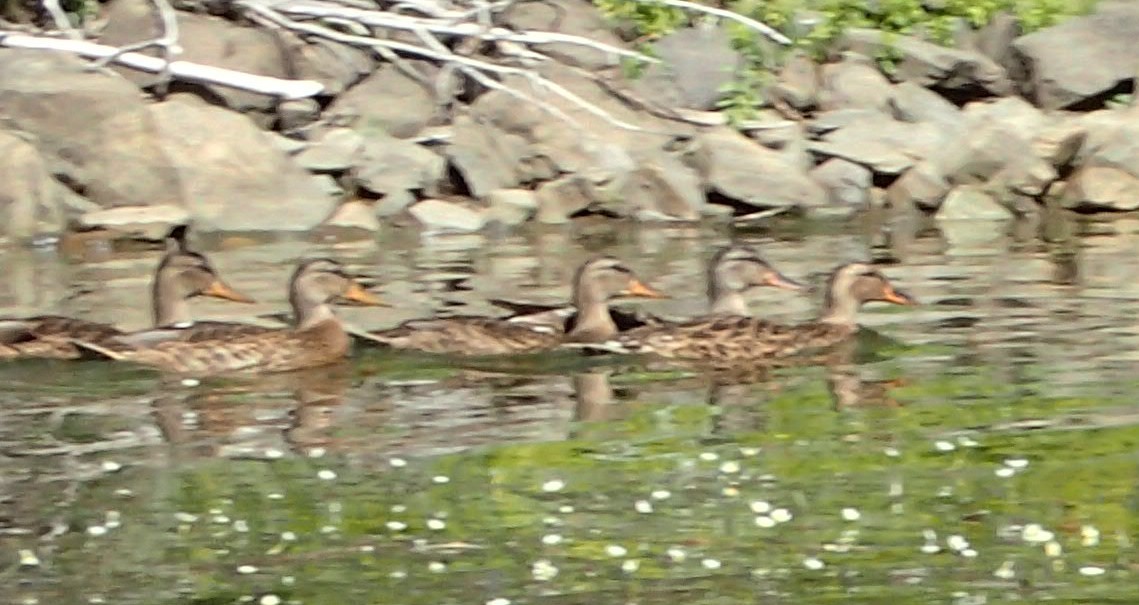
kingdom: Animalia
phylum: Chordata
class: Aves
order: Anseriformes
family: Anatidae
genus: Anas
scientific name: Anas platyrhynchos
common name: Mallard
